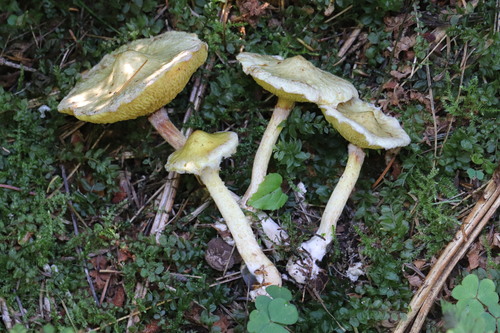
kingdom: Fungi
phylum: Basidiomycota
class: Agaricomycetes
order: Boletales
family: Suillaceae
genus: Suillus
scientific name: Suillus americanus
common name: Chicken fat mushroom
